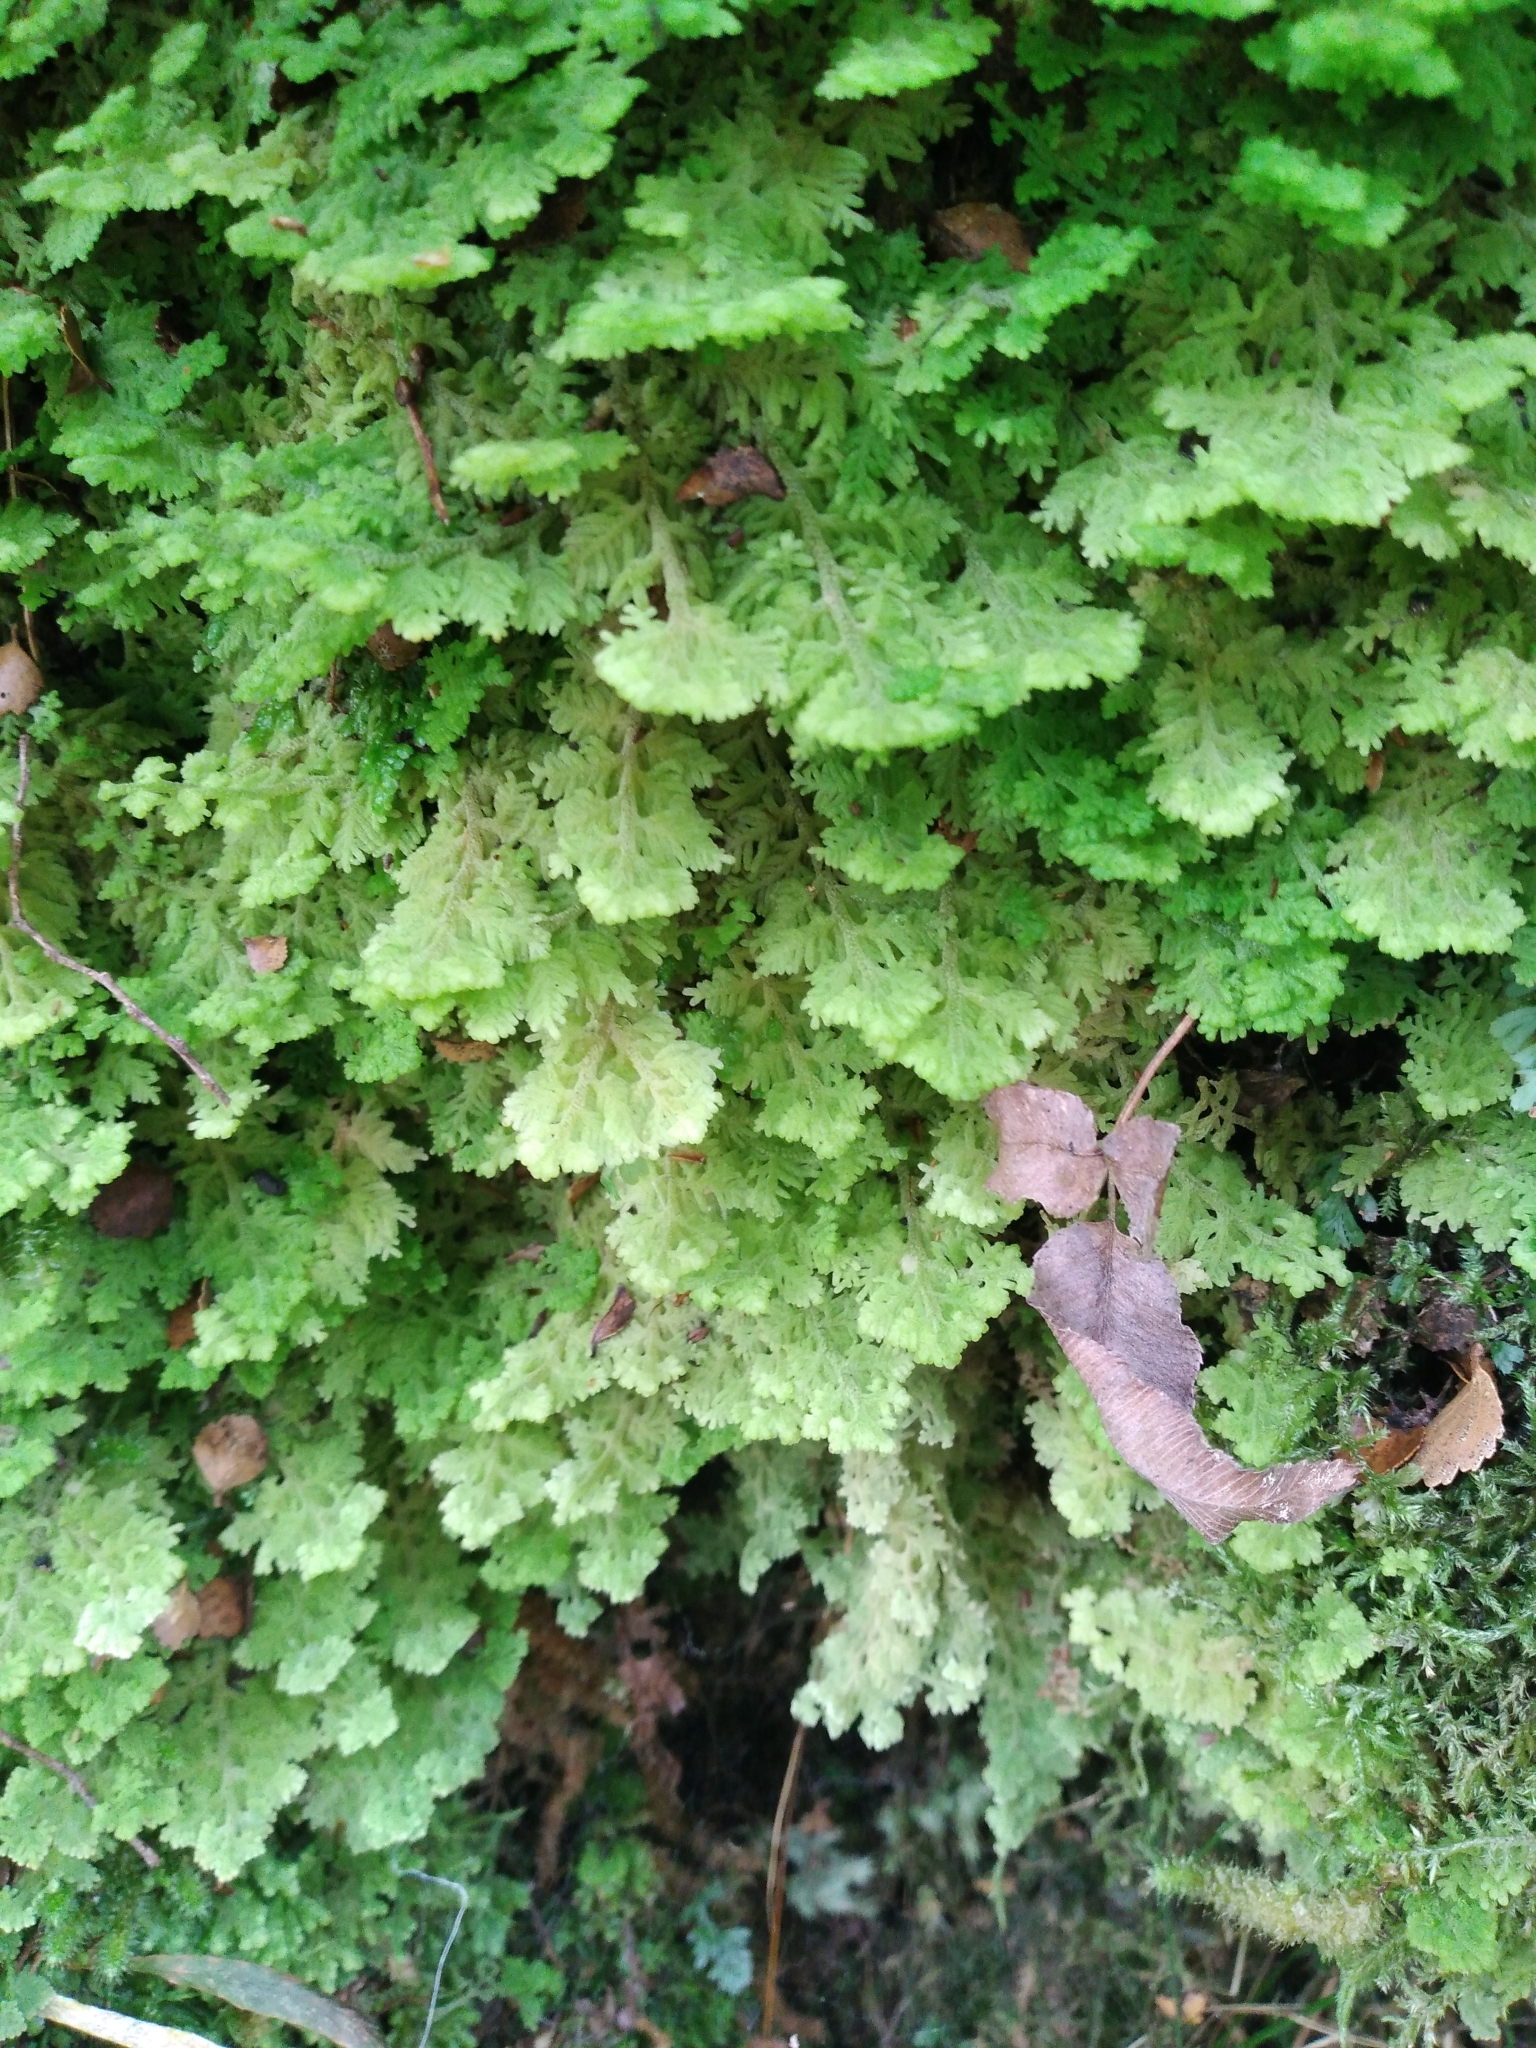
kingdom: Plantae
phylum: Marchantiophyta
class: Jungermanniopsida
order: Jungermanniales
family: Trichocoleaceae
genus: Trichocolea
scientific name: Trichocolea mollissima
